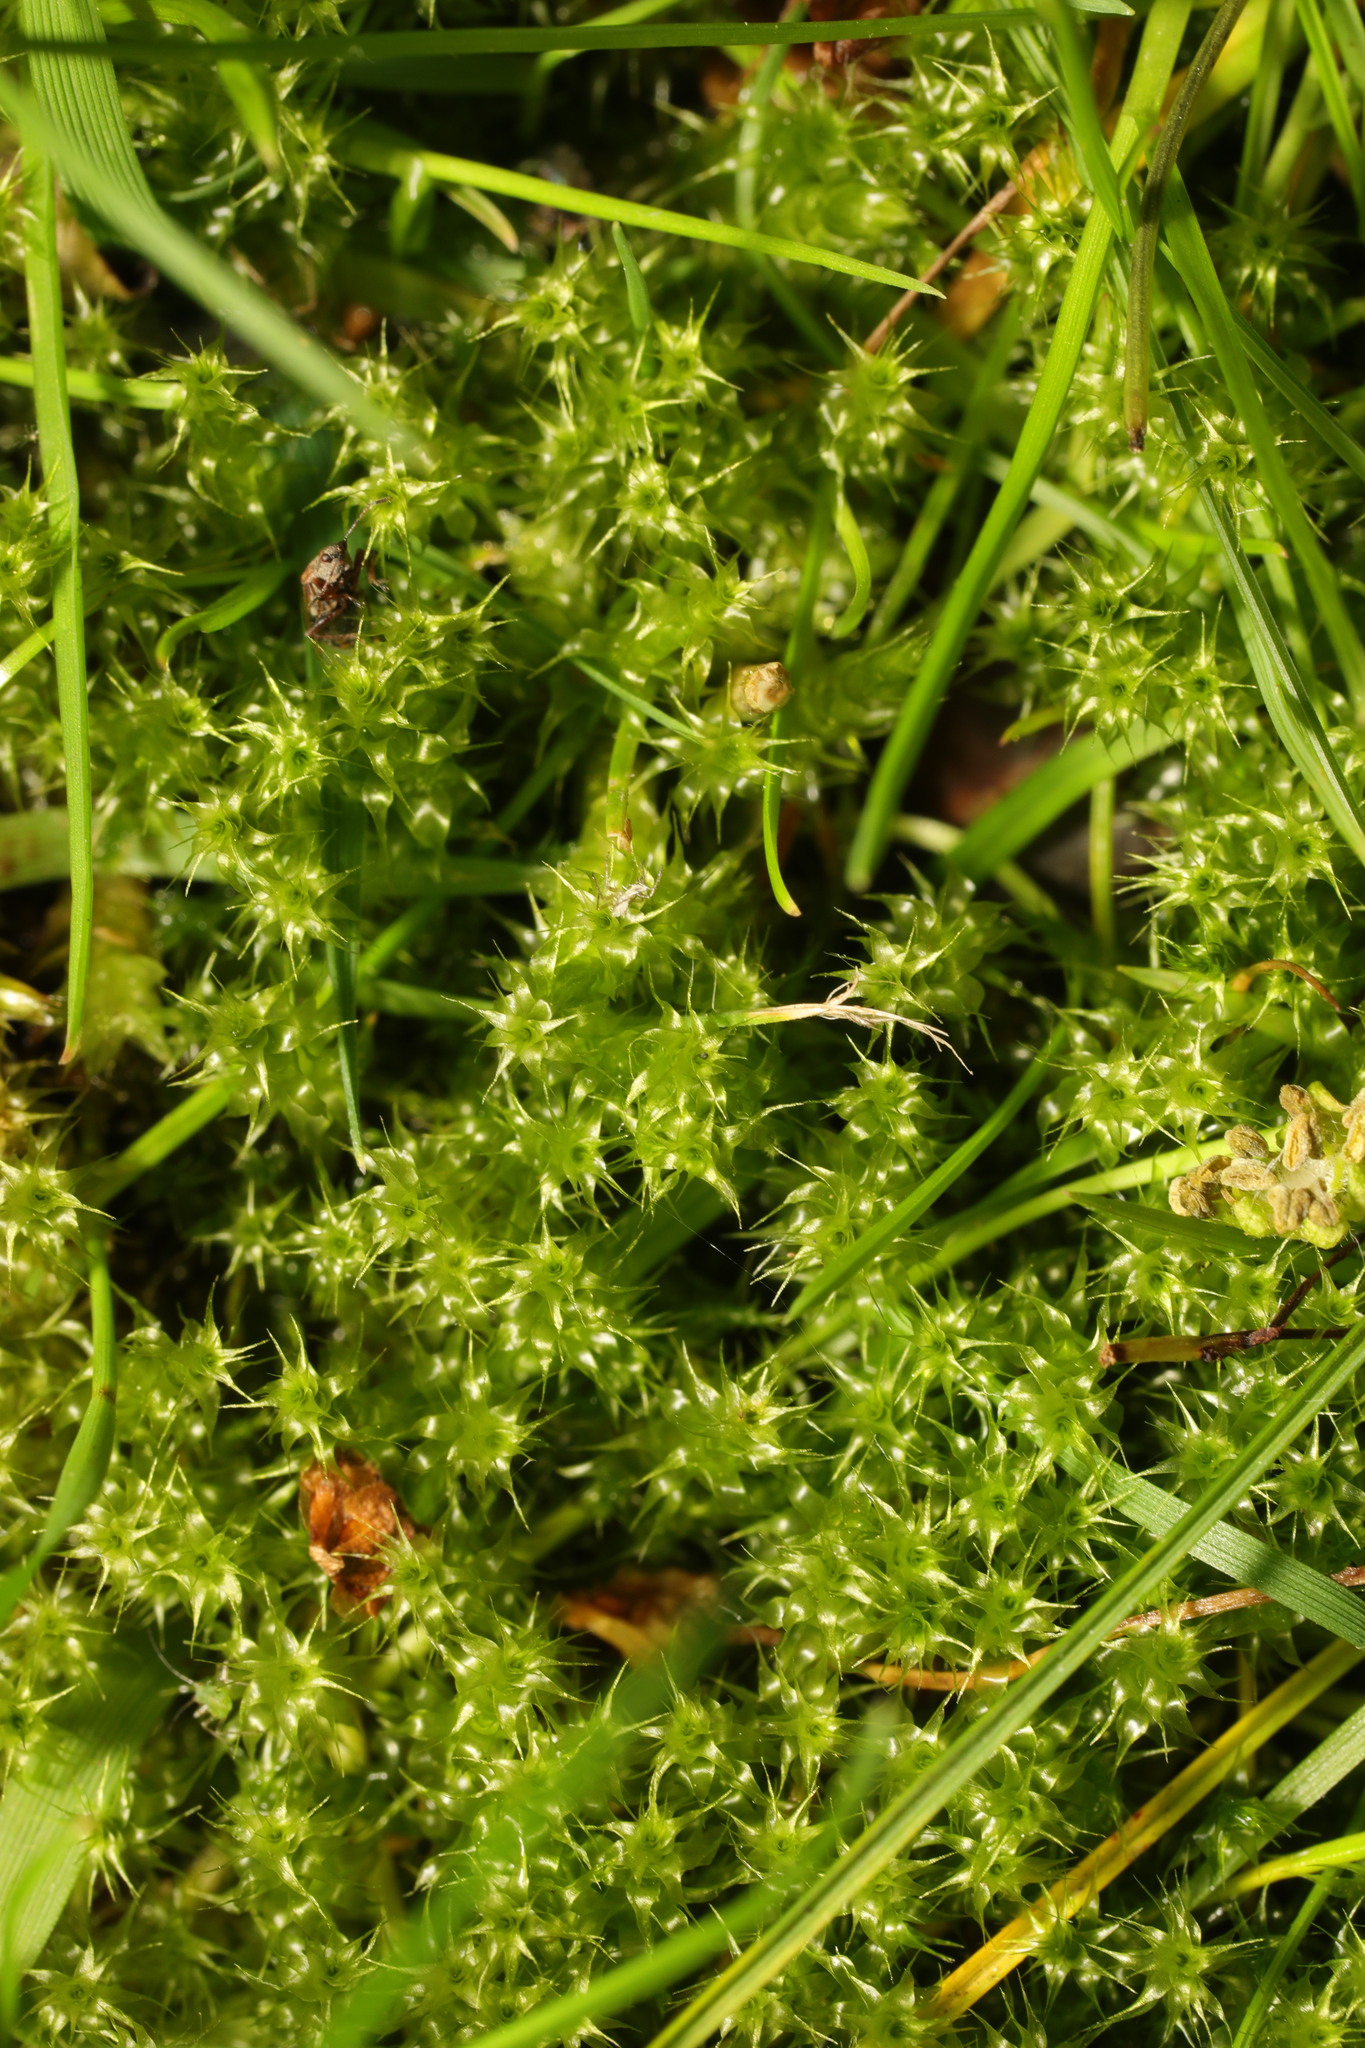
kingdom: Plantae
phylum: Bryophyta
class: Bryopsida
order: Hypnales
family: Hylocomiaceae
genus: Rhytidiadelphus
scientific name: Rhytidiadelphus squarrosus
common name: Springy turf-moss
